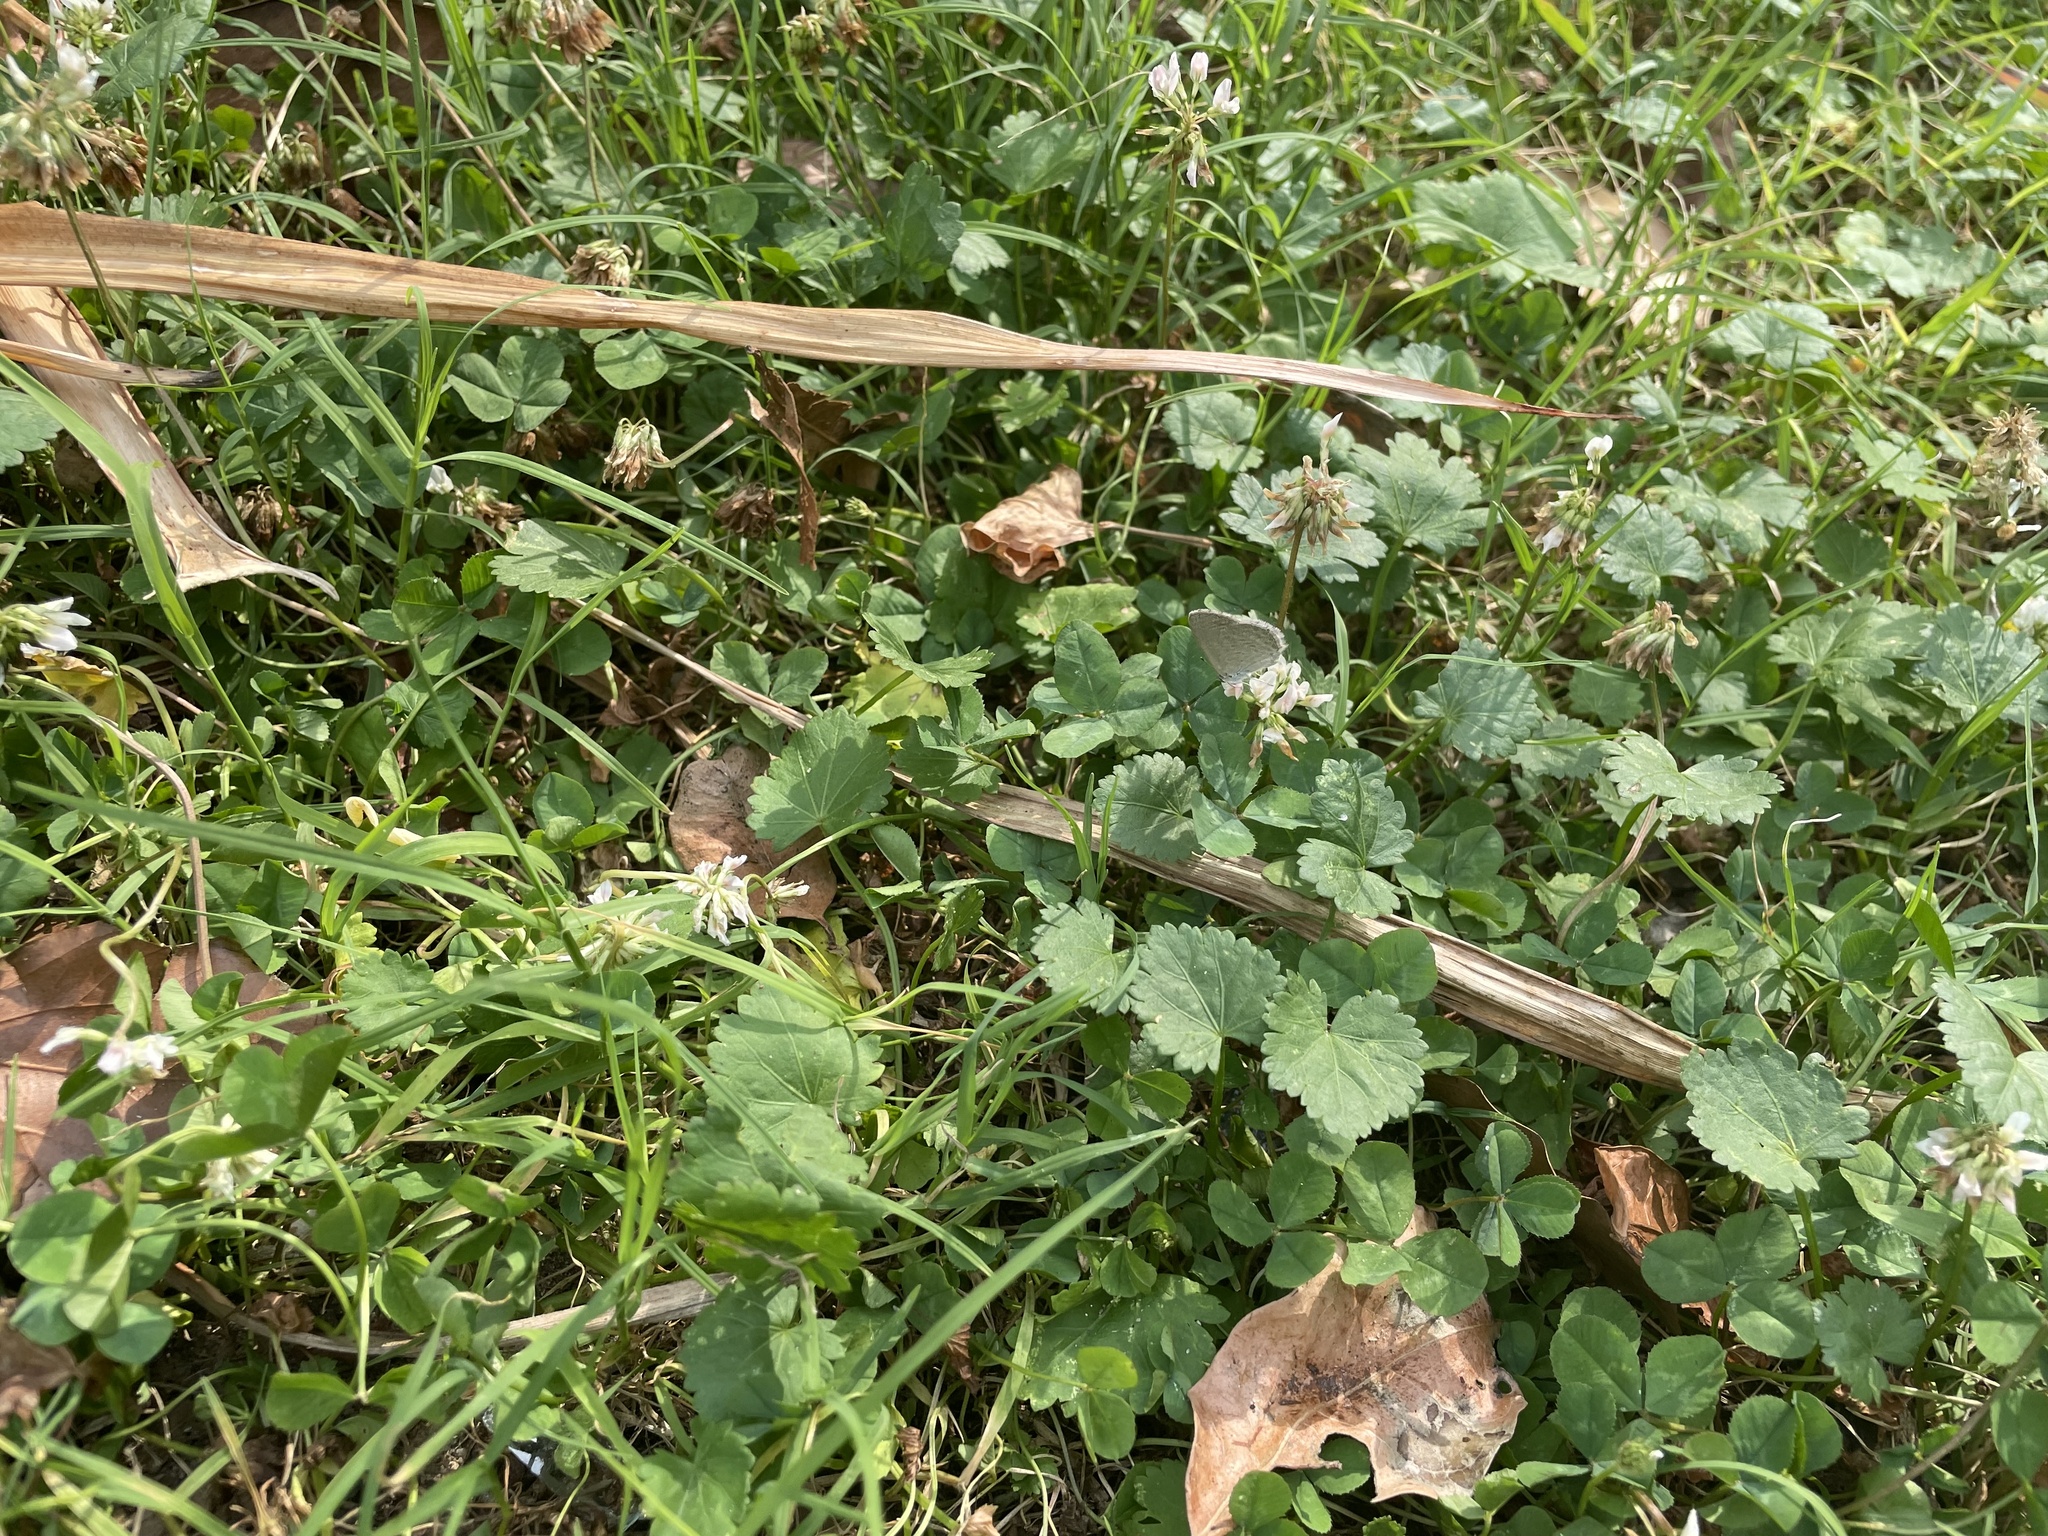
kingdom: Animalia
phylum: Arthropoda
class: Insecta
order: Lepidoptera
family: Lycaenidae
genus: Zizina
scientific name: Zizina otis
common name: Lesser grass blue
